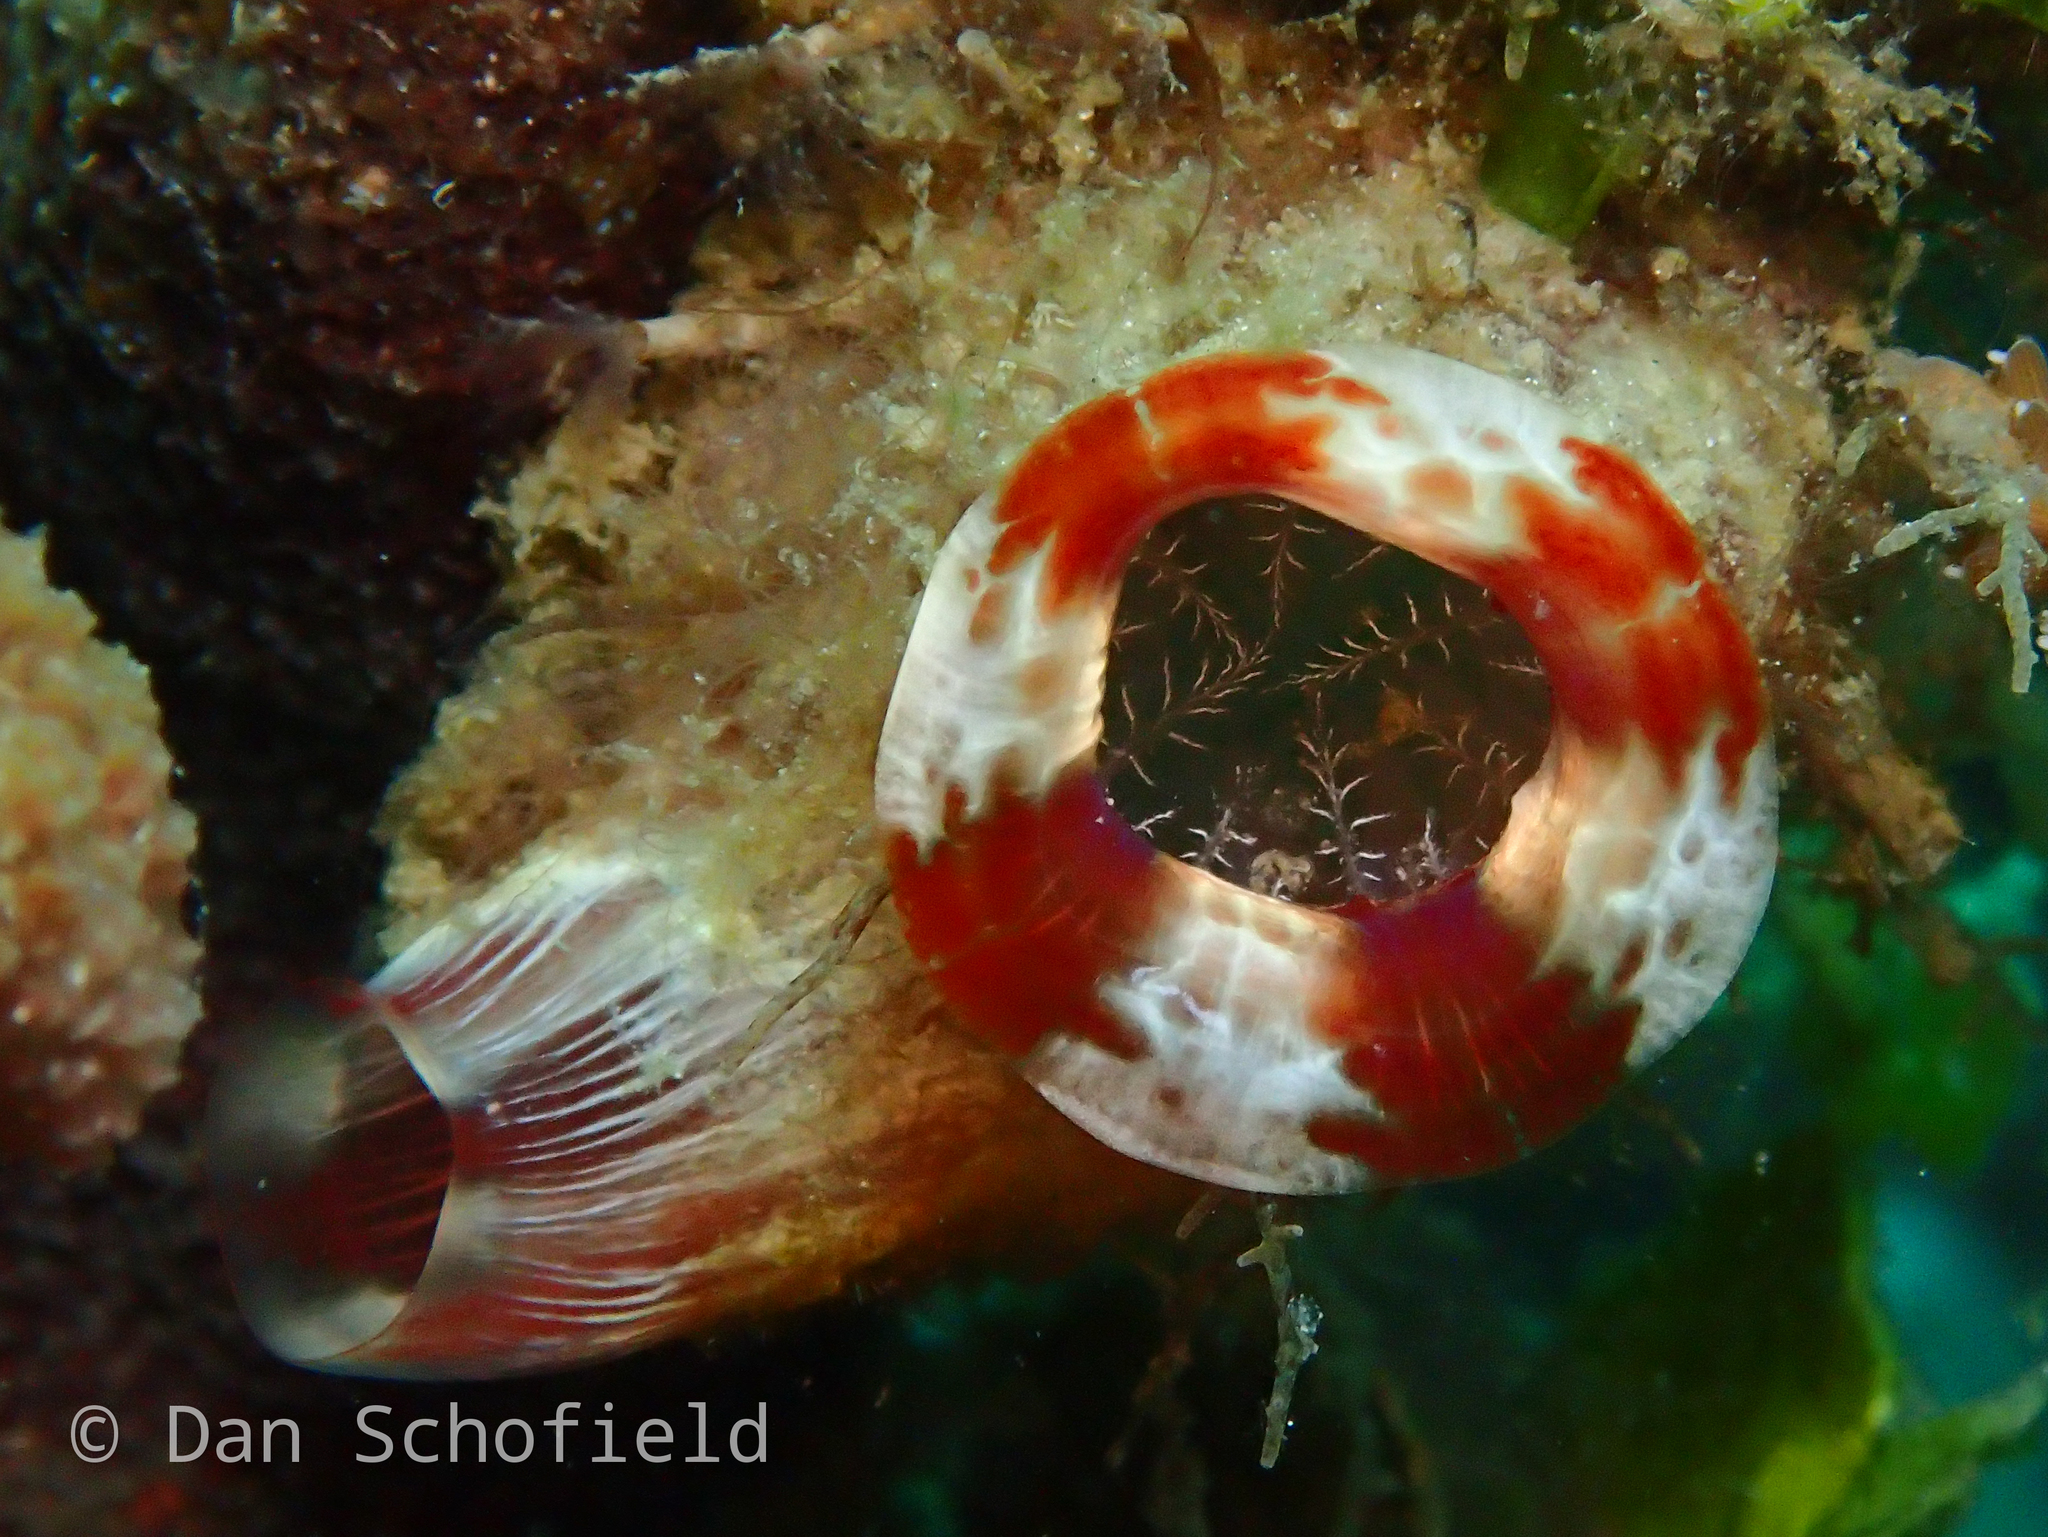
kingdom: Animalia
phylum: Chordata
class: Ascidiacea
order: Stolidobranchia
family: Pyuridae
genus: Herdmania
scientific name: Herdmania momus
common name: Red-throated ascidian
